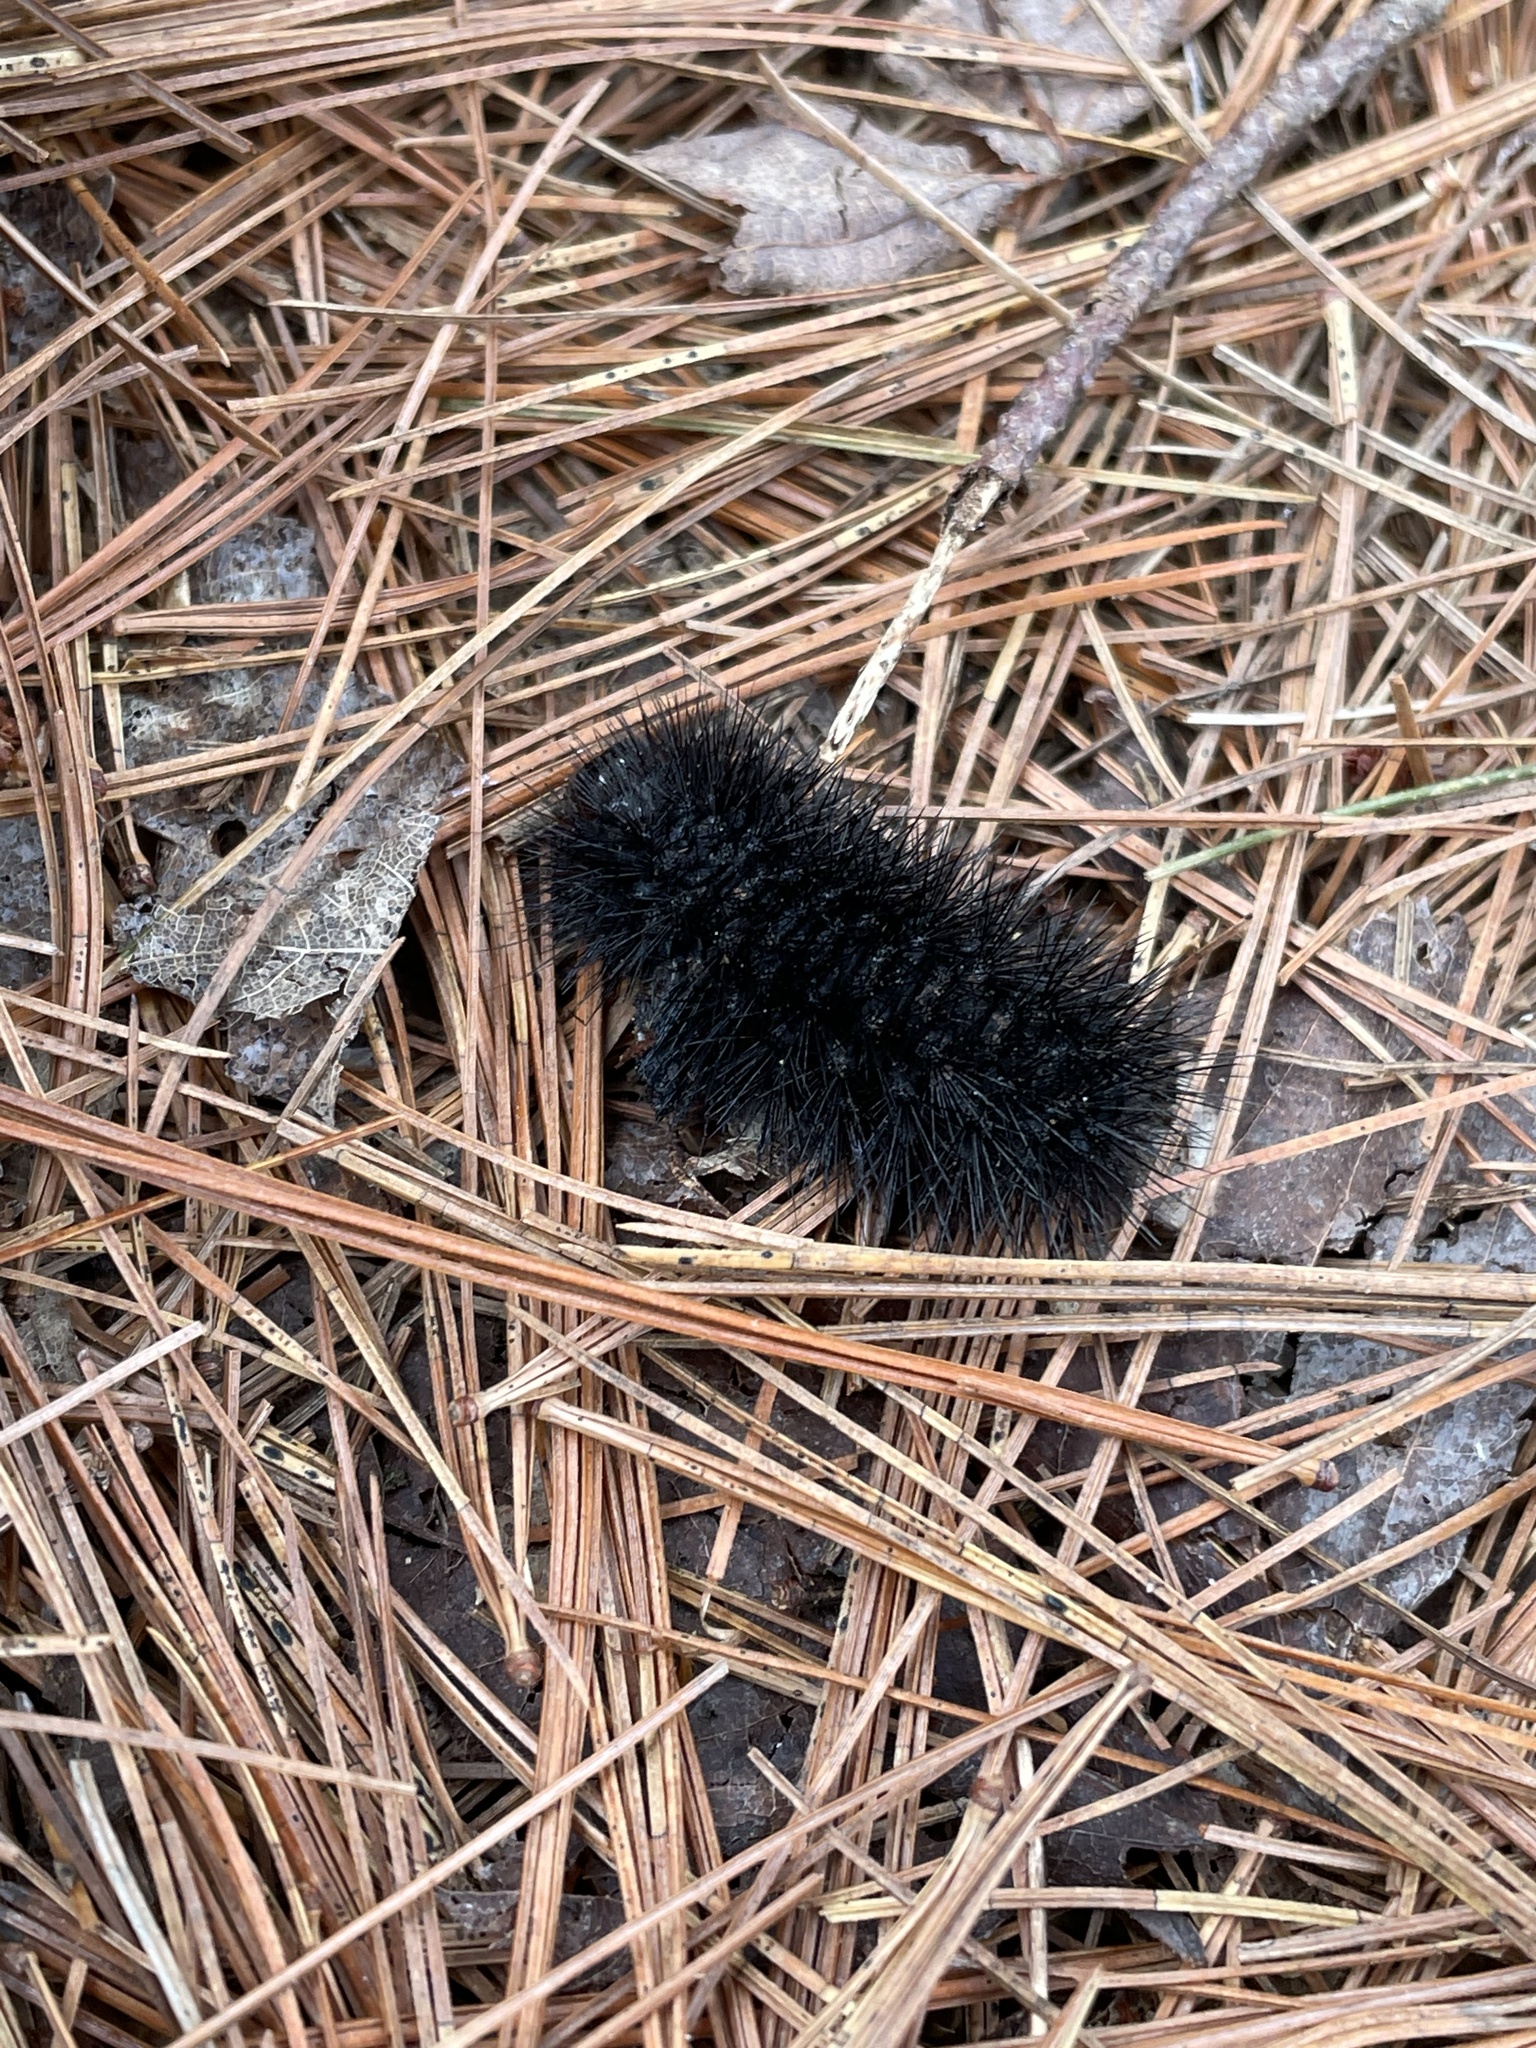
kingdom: Animalia
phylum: Arthropoda
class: Insecta
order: Lepidoptera
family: Erebidae
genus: Hypercompe
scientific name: Hypercompe scribonia
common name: Giant leopard moth
